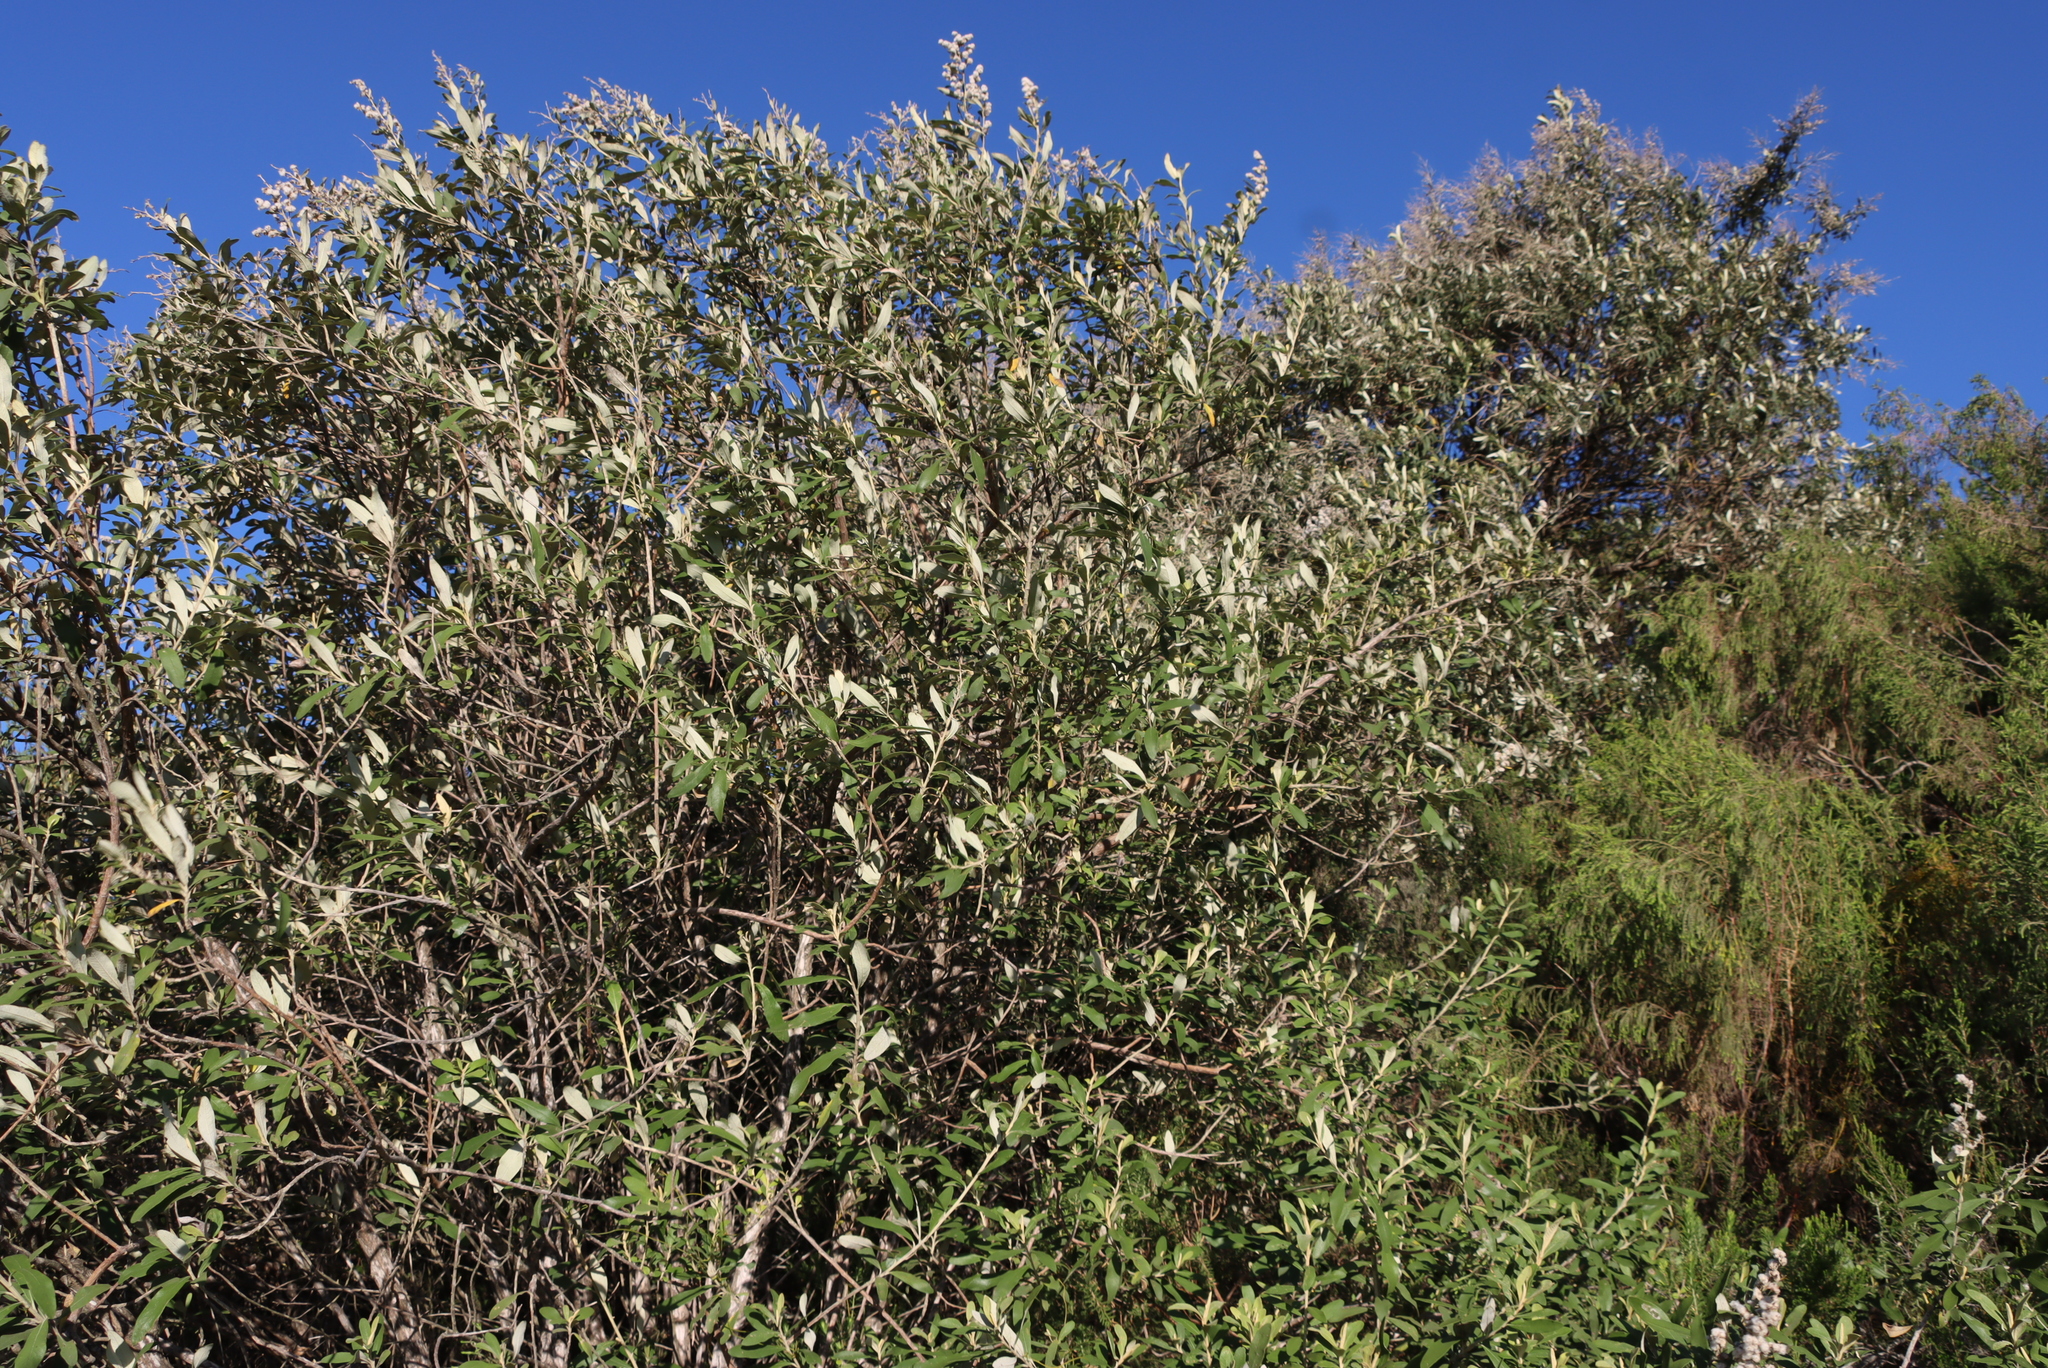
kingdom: Plantae
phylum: Tracheophyta
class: Magnoliopsida
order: Asterales
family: Asteraceae
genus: Tarchonanthus
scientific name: Tarchonanthus littoralis
